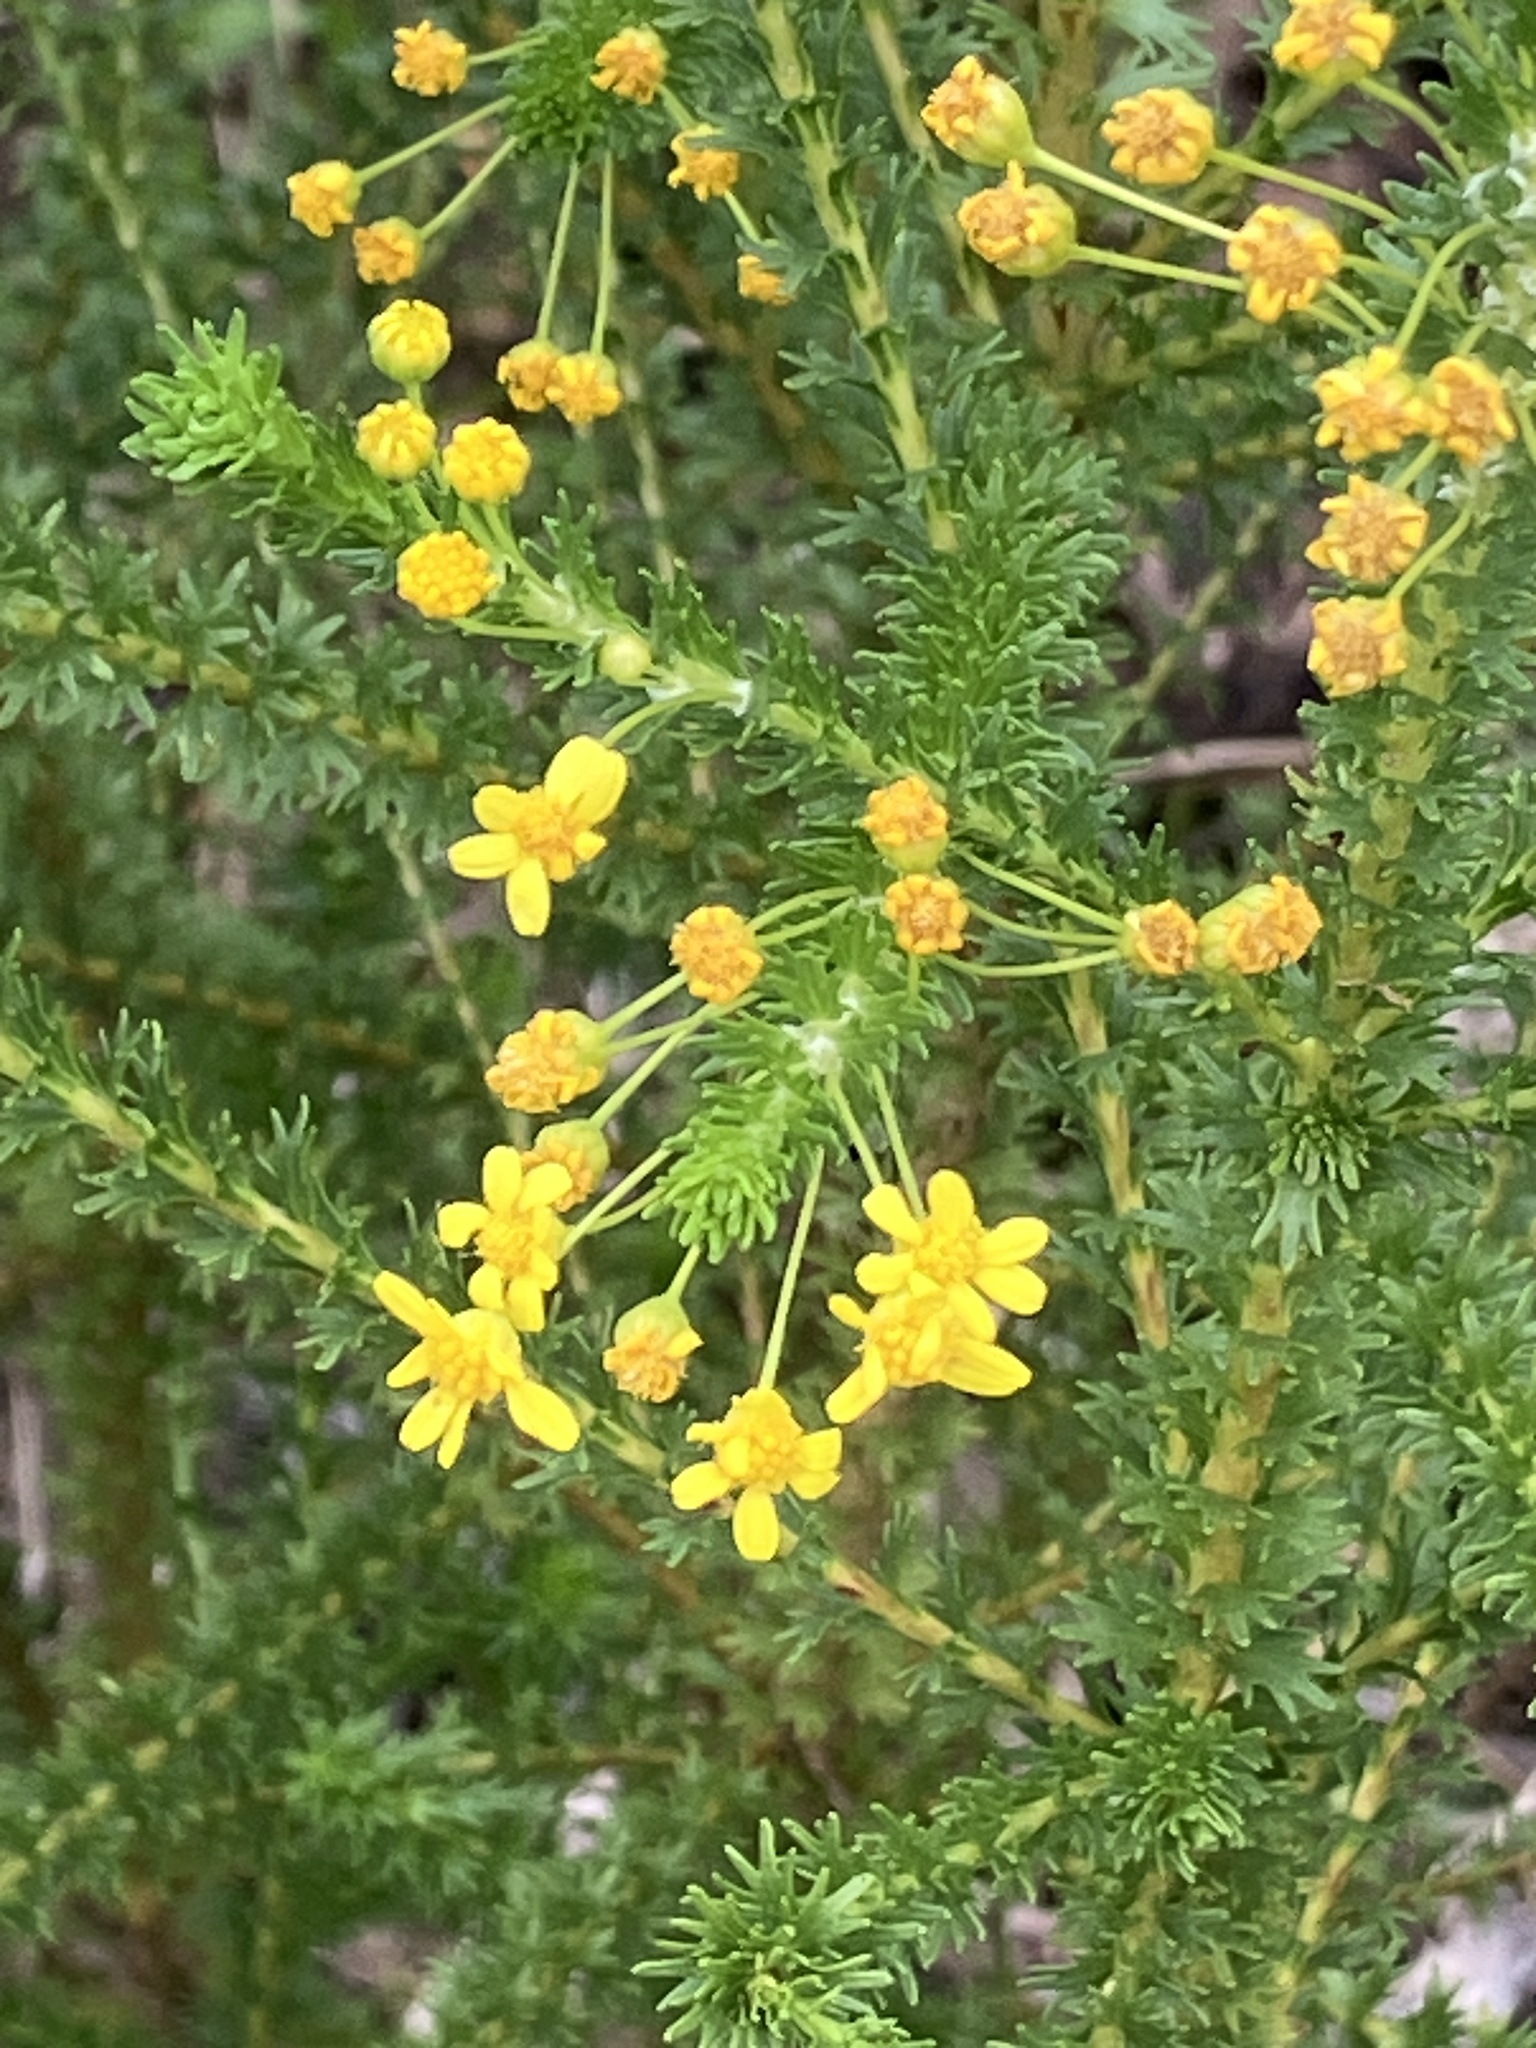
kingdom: Plantae
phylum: Tracheophyta
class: Magnoliopsida
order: Asterales
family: Asteraceae
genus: Euryops
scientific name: Euryops virgineus
